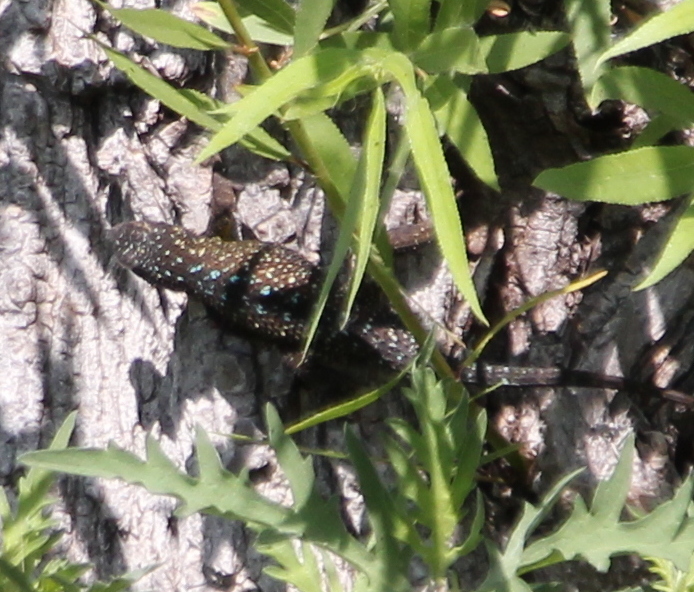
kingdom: Animalia
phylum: Chordata
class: Squamata
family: Phrynosomatidae
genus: Sceloporus
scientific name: Sceloporus occidentalis
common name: Western fence lizard
